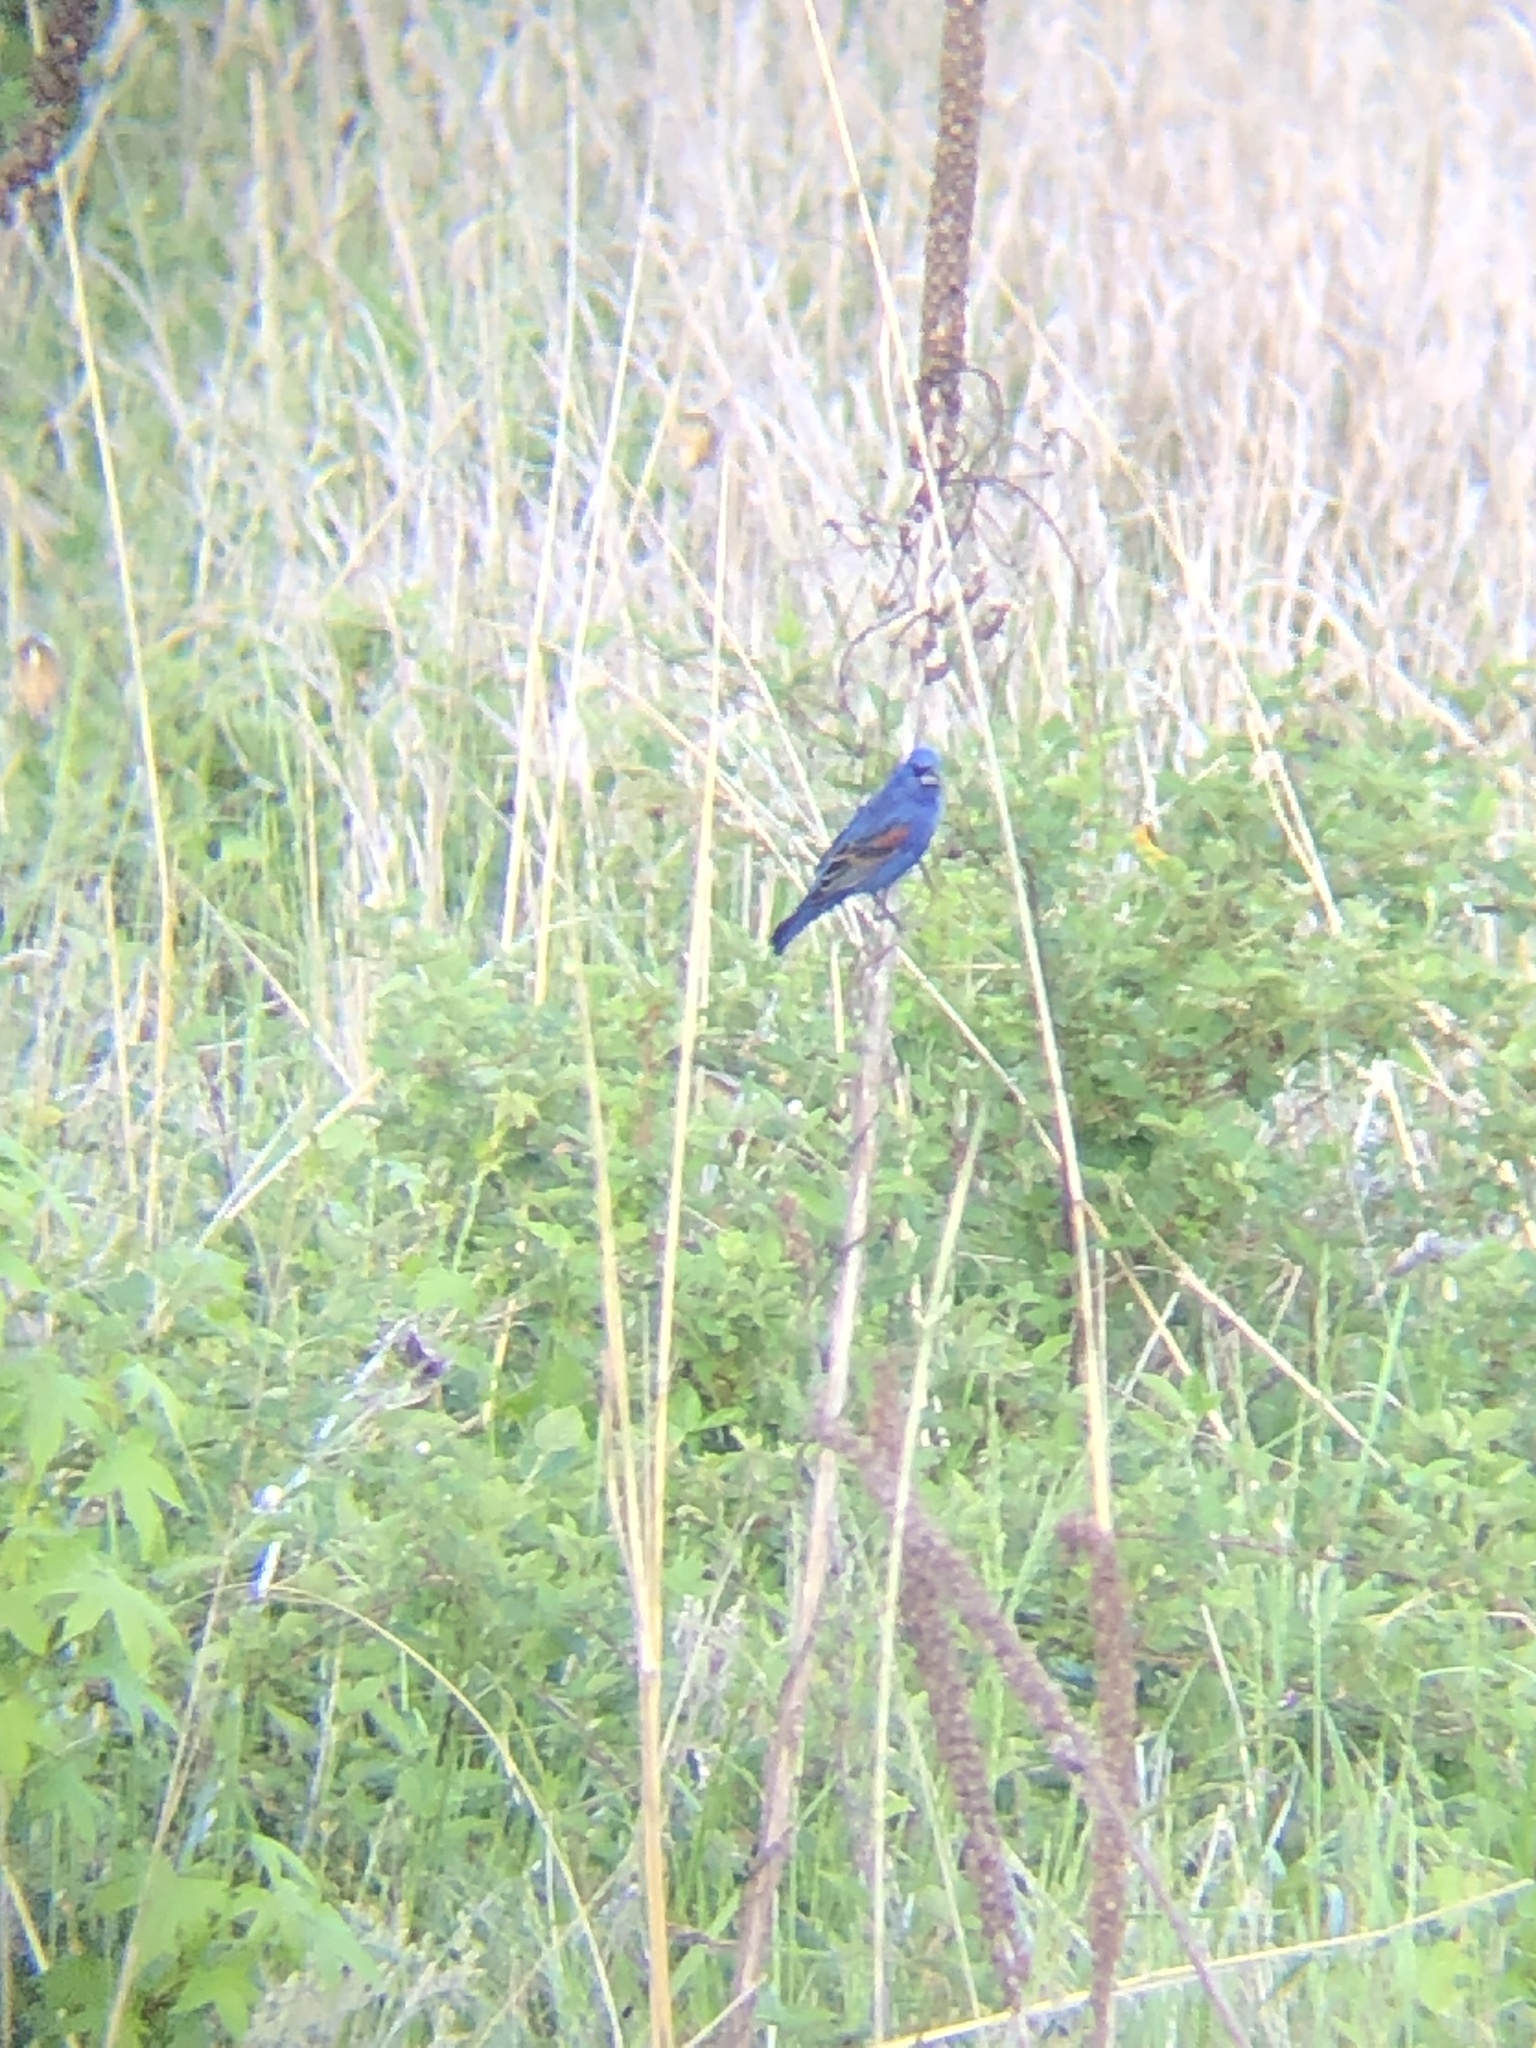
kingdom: Animalia
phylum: Chordata
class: Aves
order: Passeriformes
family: Cardinalidae
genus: Passerina
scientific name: Passerina caerulea
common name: Blue grosbeak
